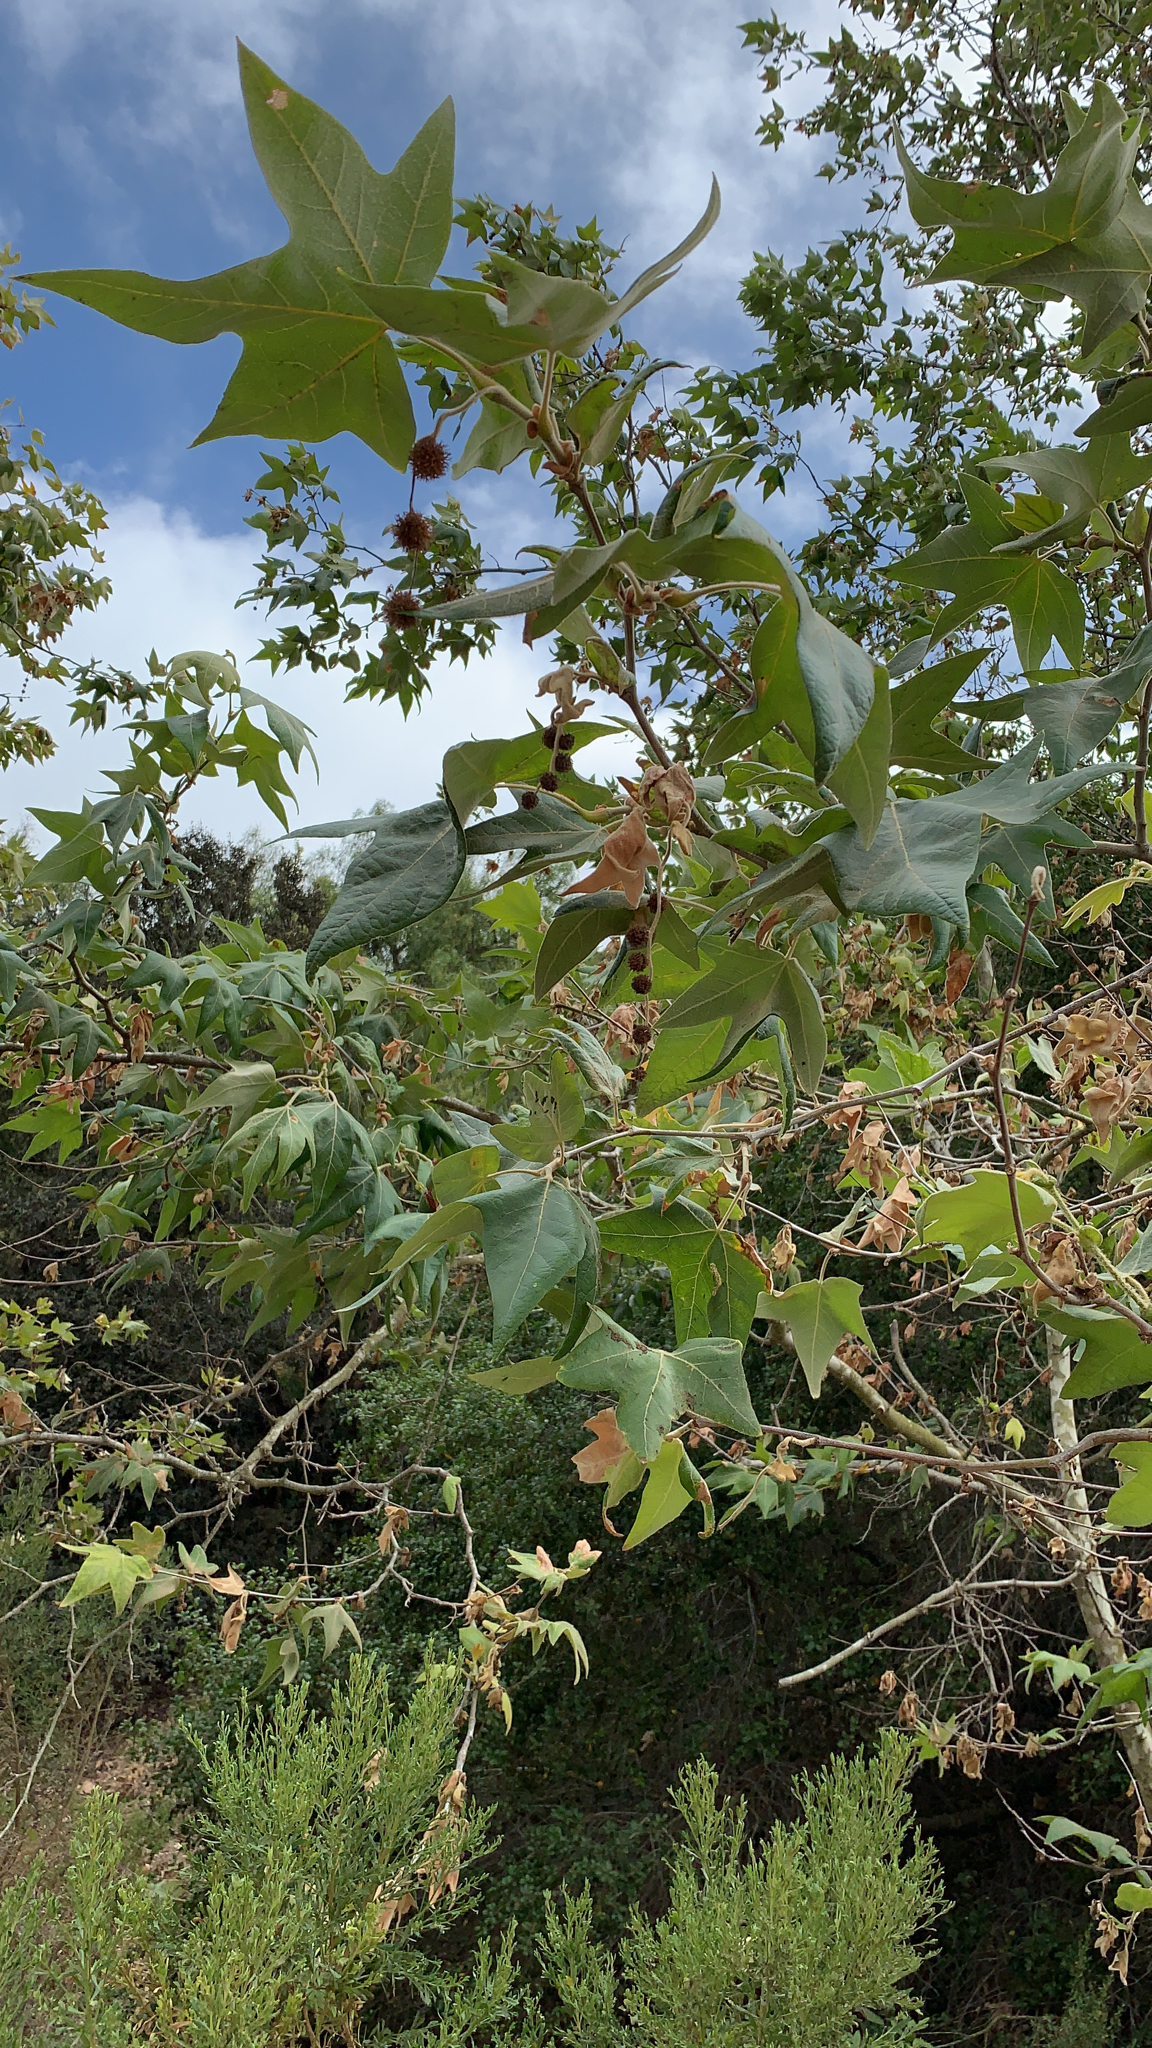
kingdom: Plantae
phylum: Tracheophyta
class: Magnoliopsida
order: Proteales
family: Platanaceae
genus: Platanus
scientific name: Platanus racemosa
